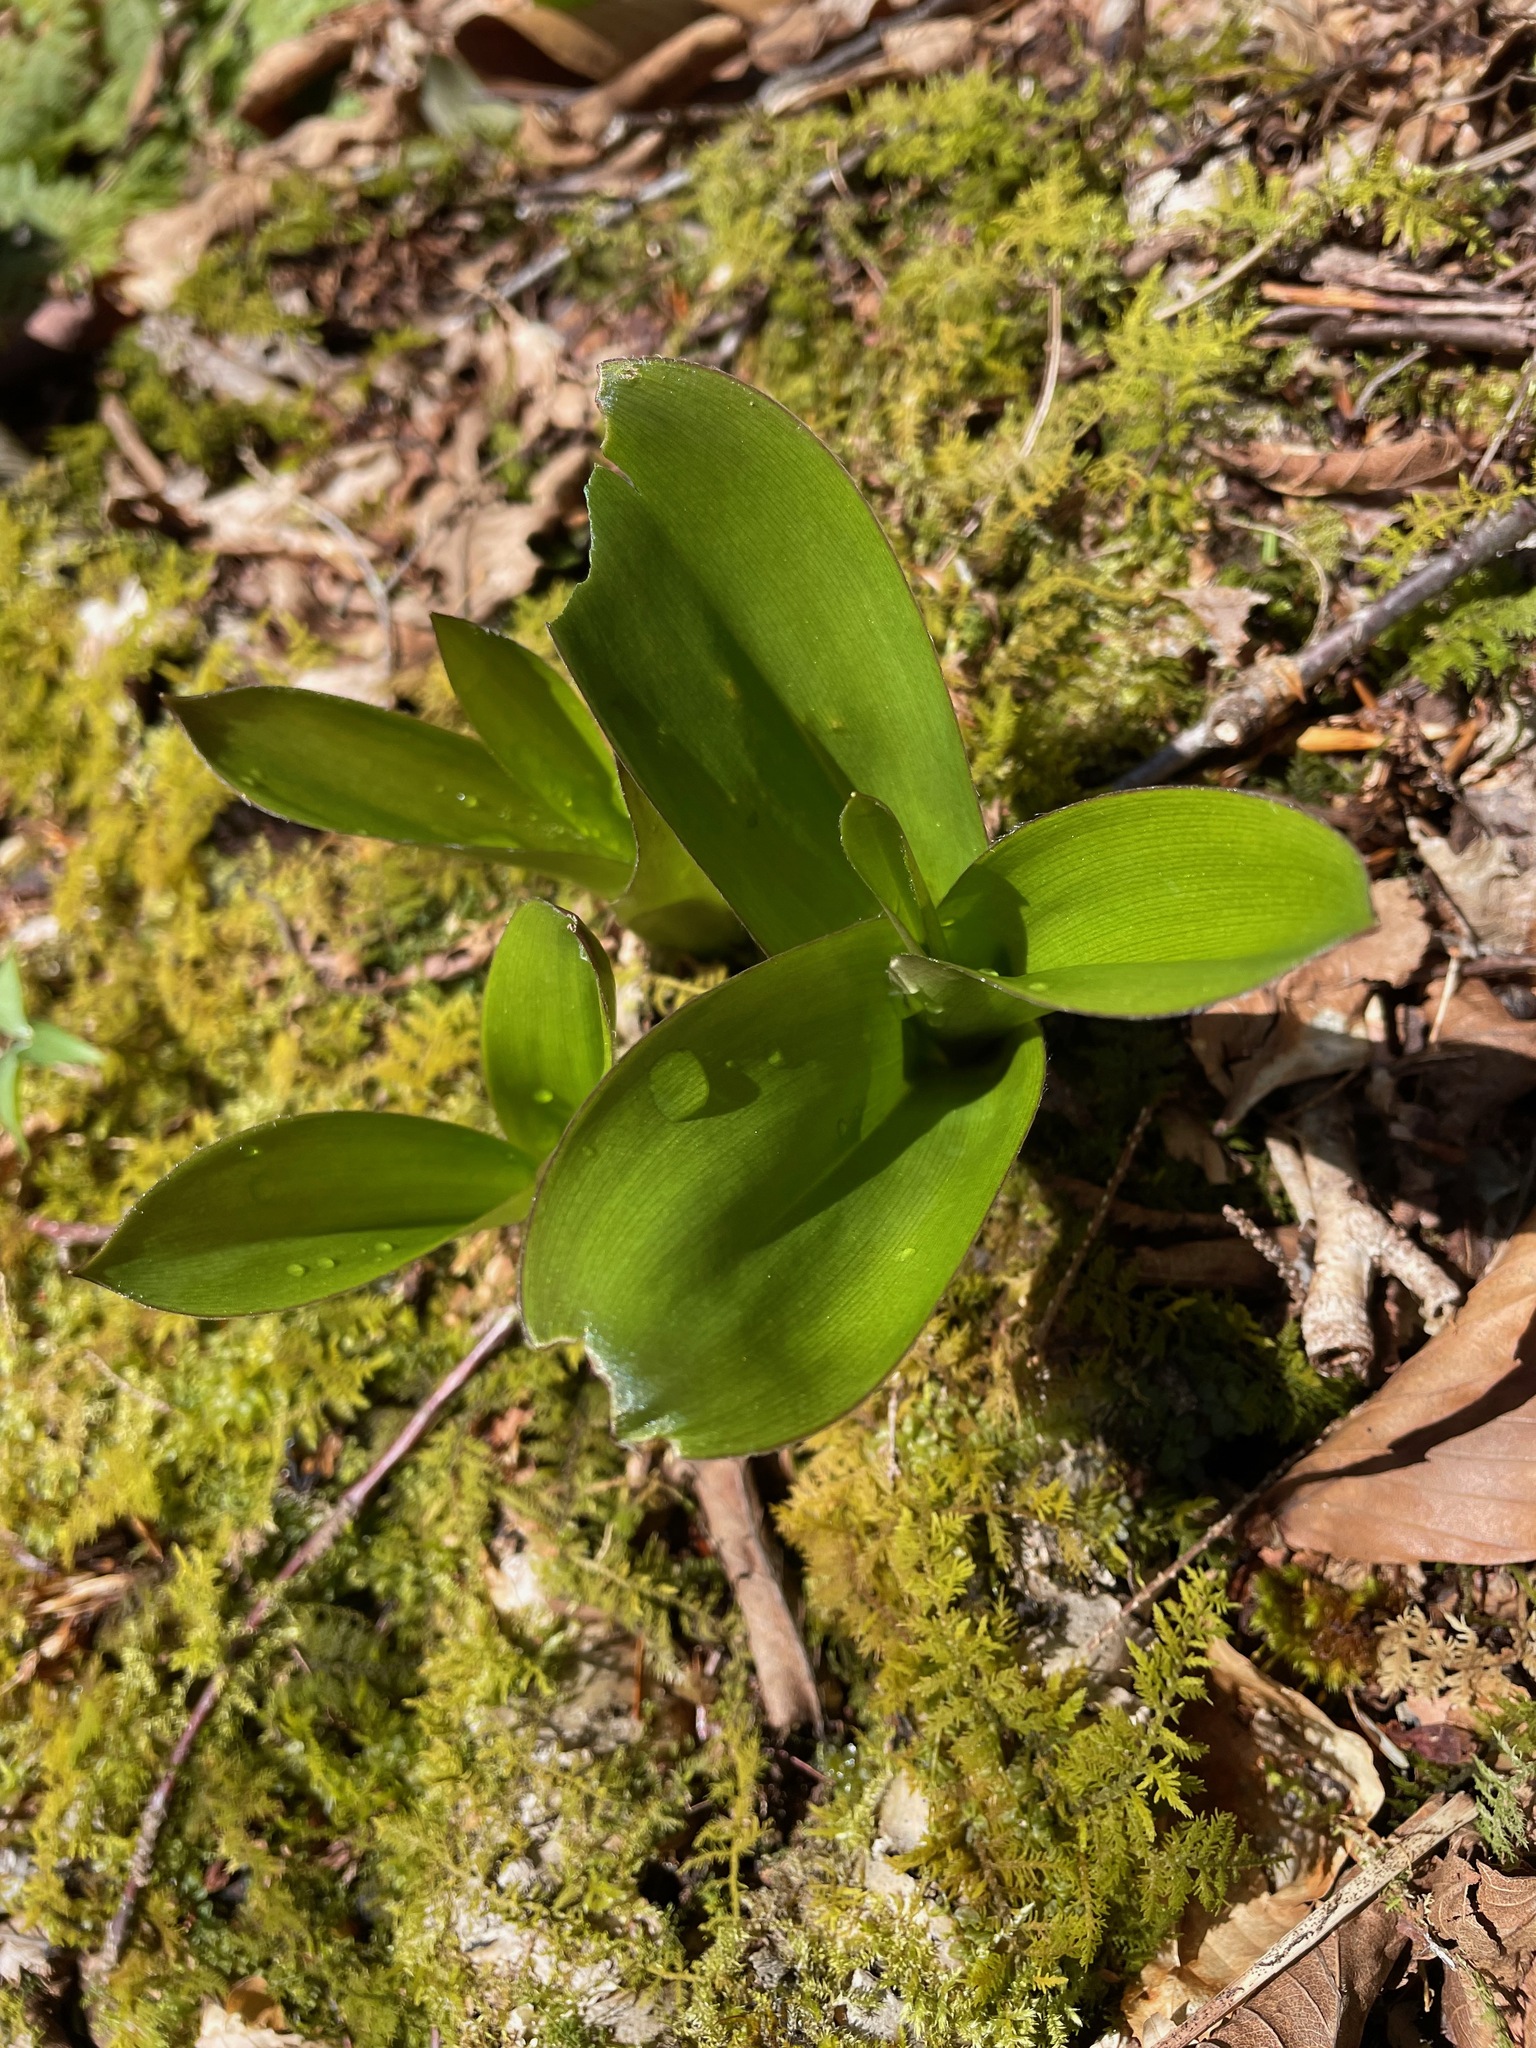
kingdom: Plantae
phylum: Tracheophyta
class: Liliopsida
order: Liliales
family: Liliaceae
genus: Clintonia
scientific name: Clintonia borealis
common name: Yellow clintonia
